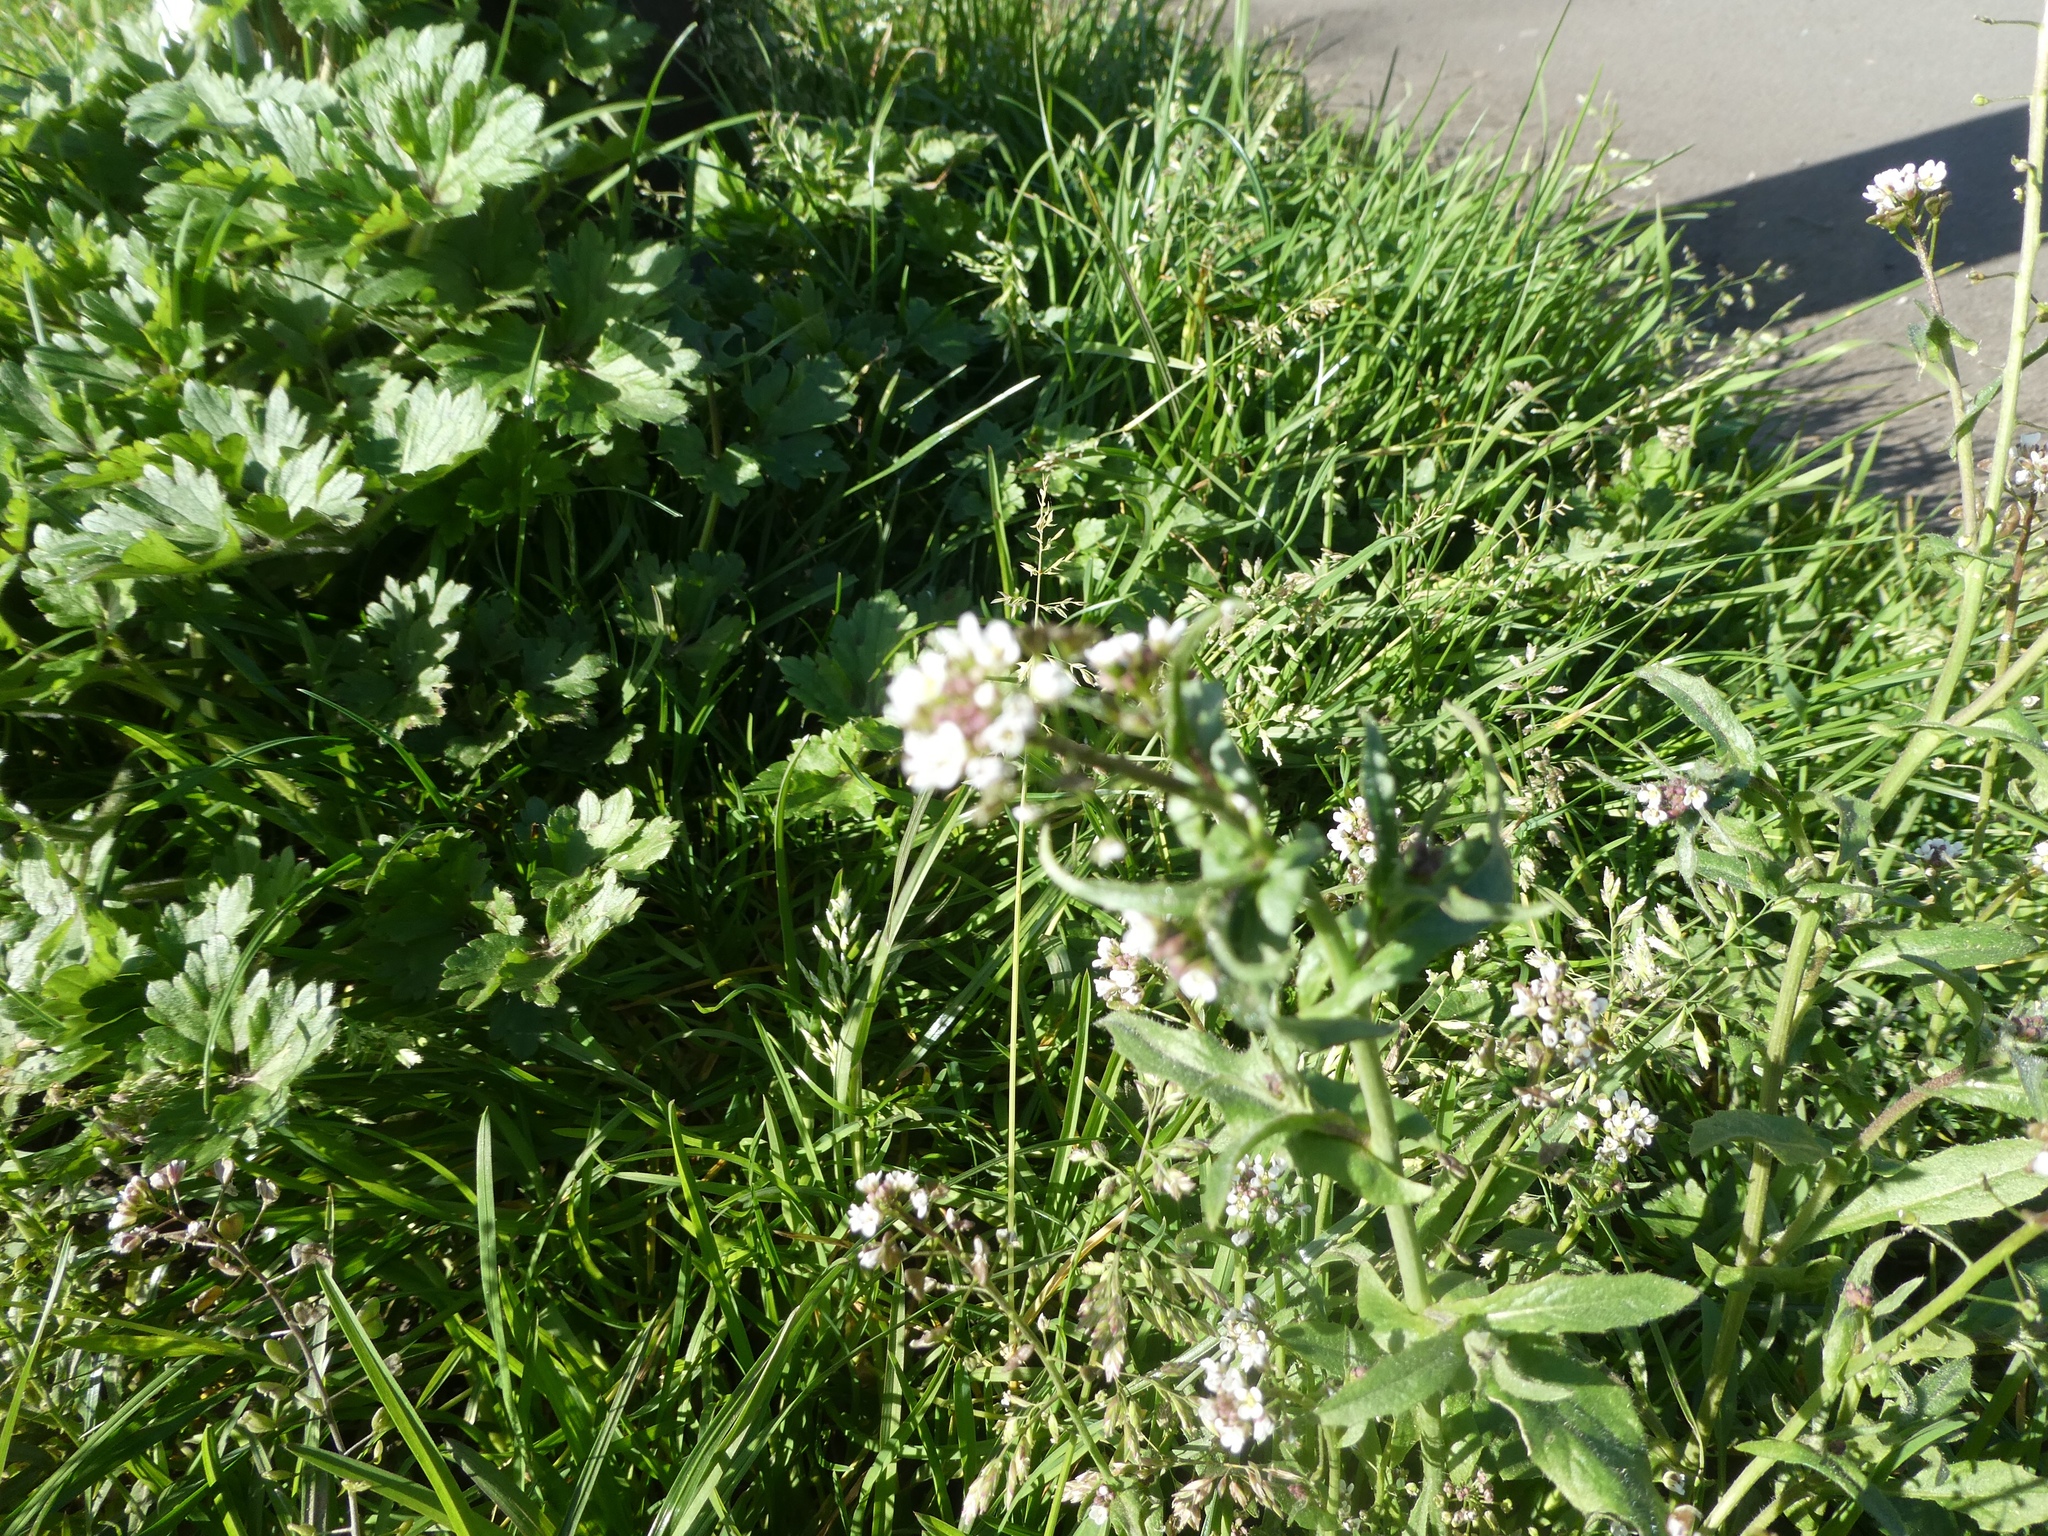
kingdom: Plantae
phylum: Tracheophyta
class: Magnoliopsida
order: Brassicales
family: Brassicaceae
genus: Capsella
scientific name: Capsella bursa-pastoris
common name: Shepherd's purse
